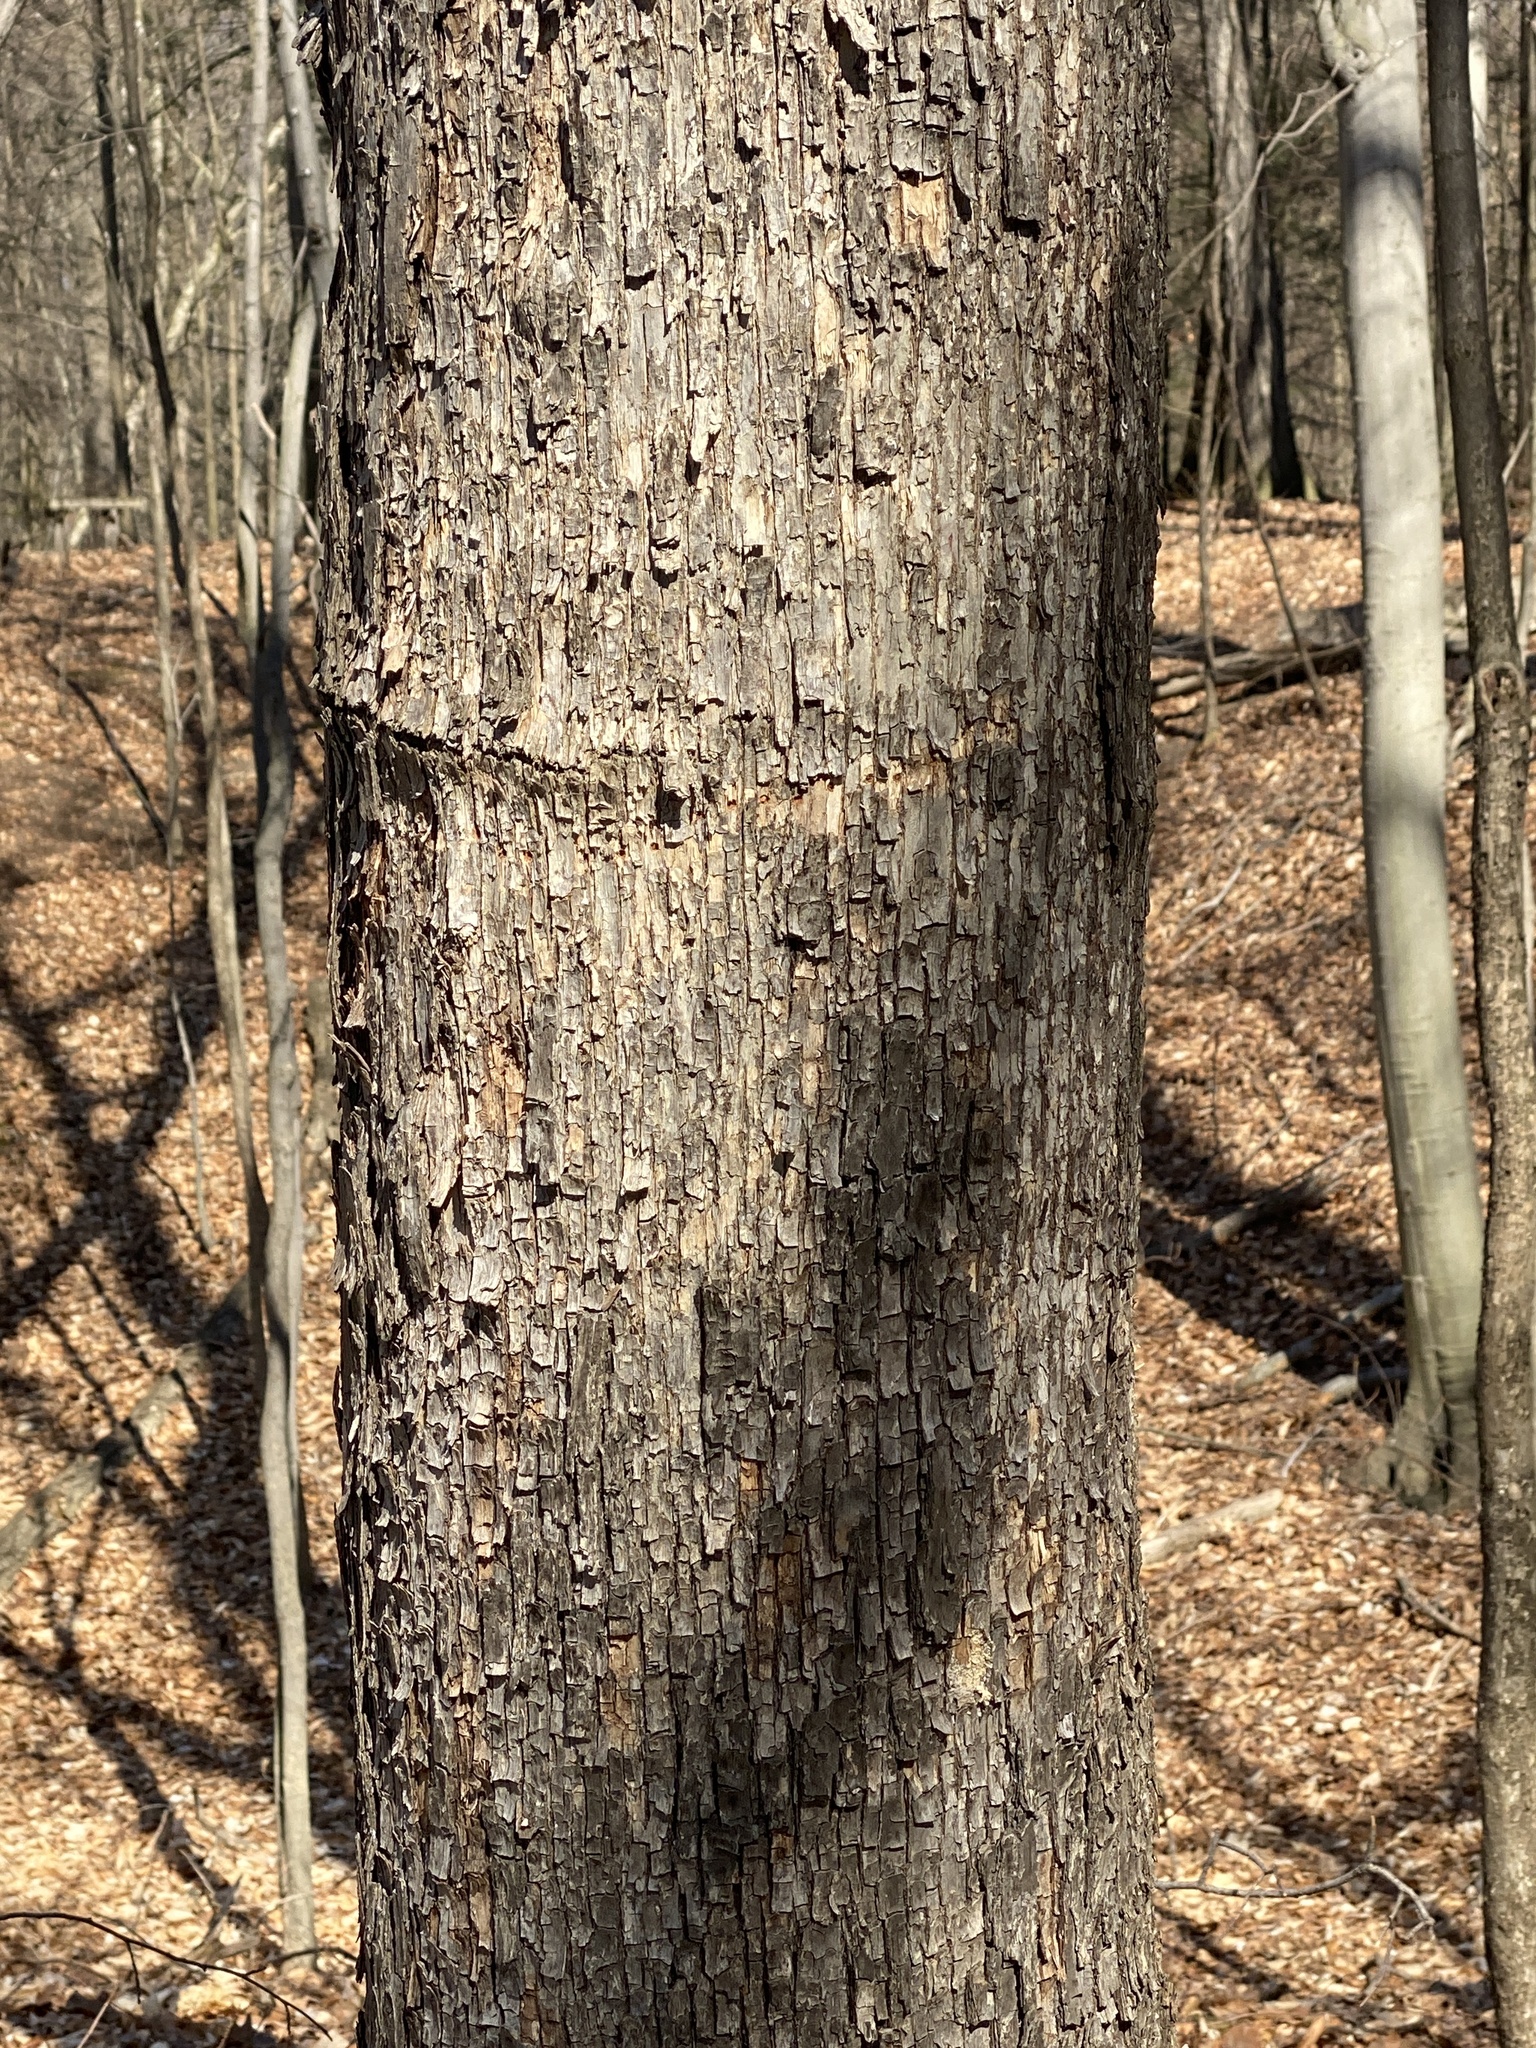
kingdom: Plantae
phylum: Tracheophyta
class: Magnoliopsida
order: Fagales
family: Betulaceae
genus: Ostrya
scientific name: Ostrya virginiana
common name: Ironwood
